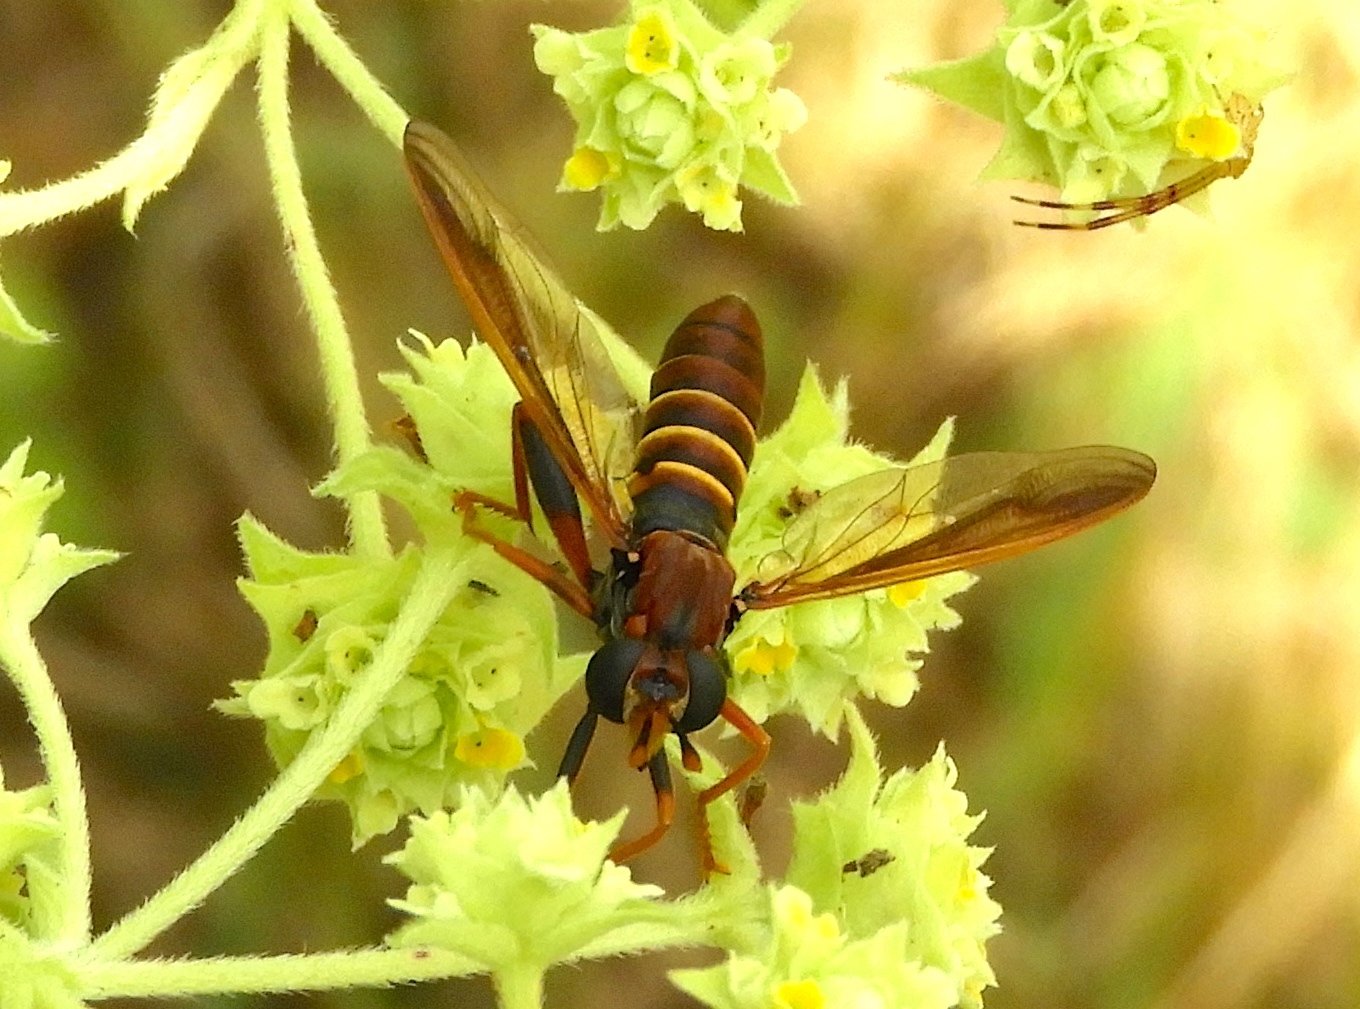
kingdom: Animalia
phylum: Arthropoda
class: Insecta
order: Diptera
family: Mydidae
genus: Mydas
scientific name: Mydas
